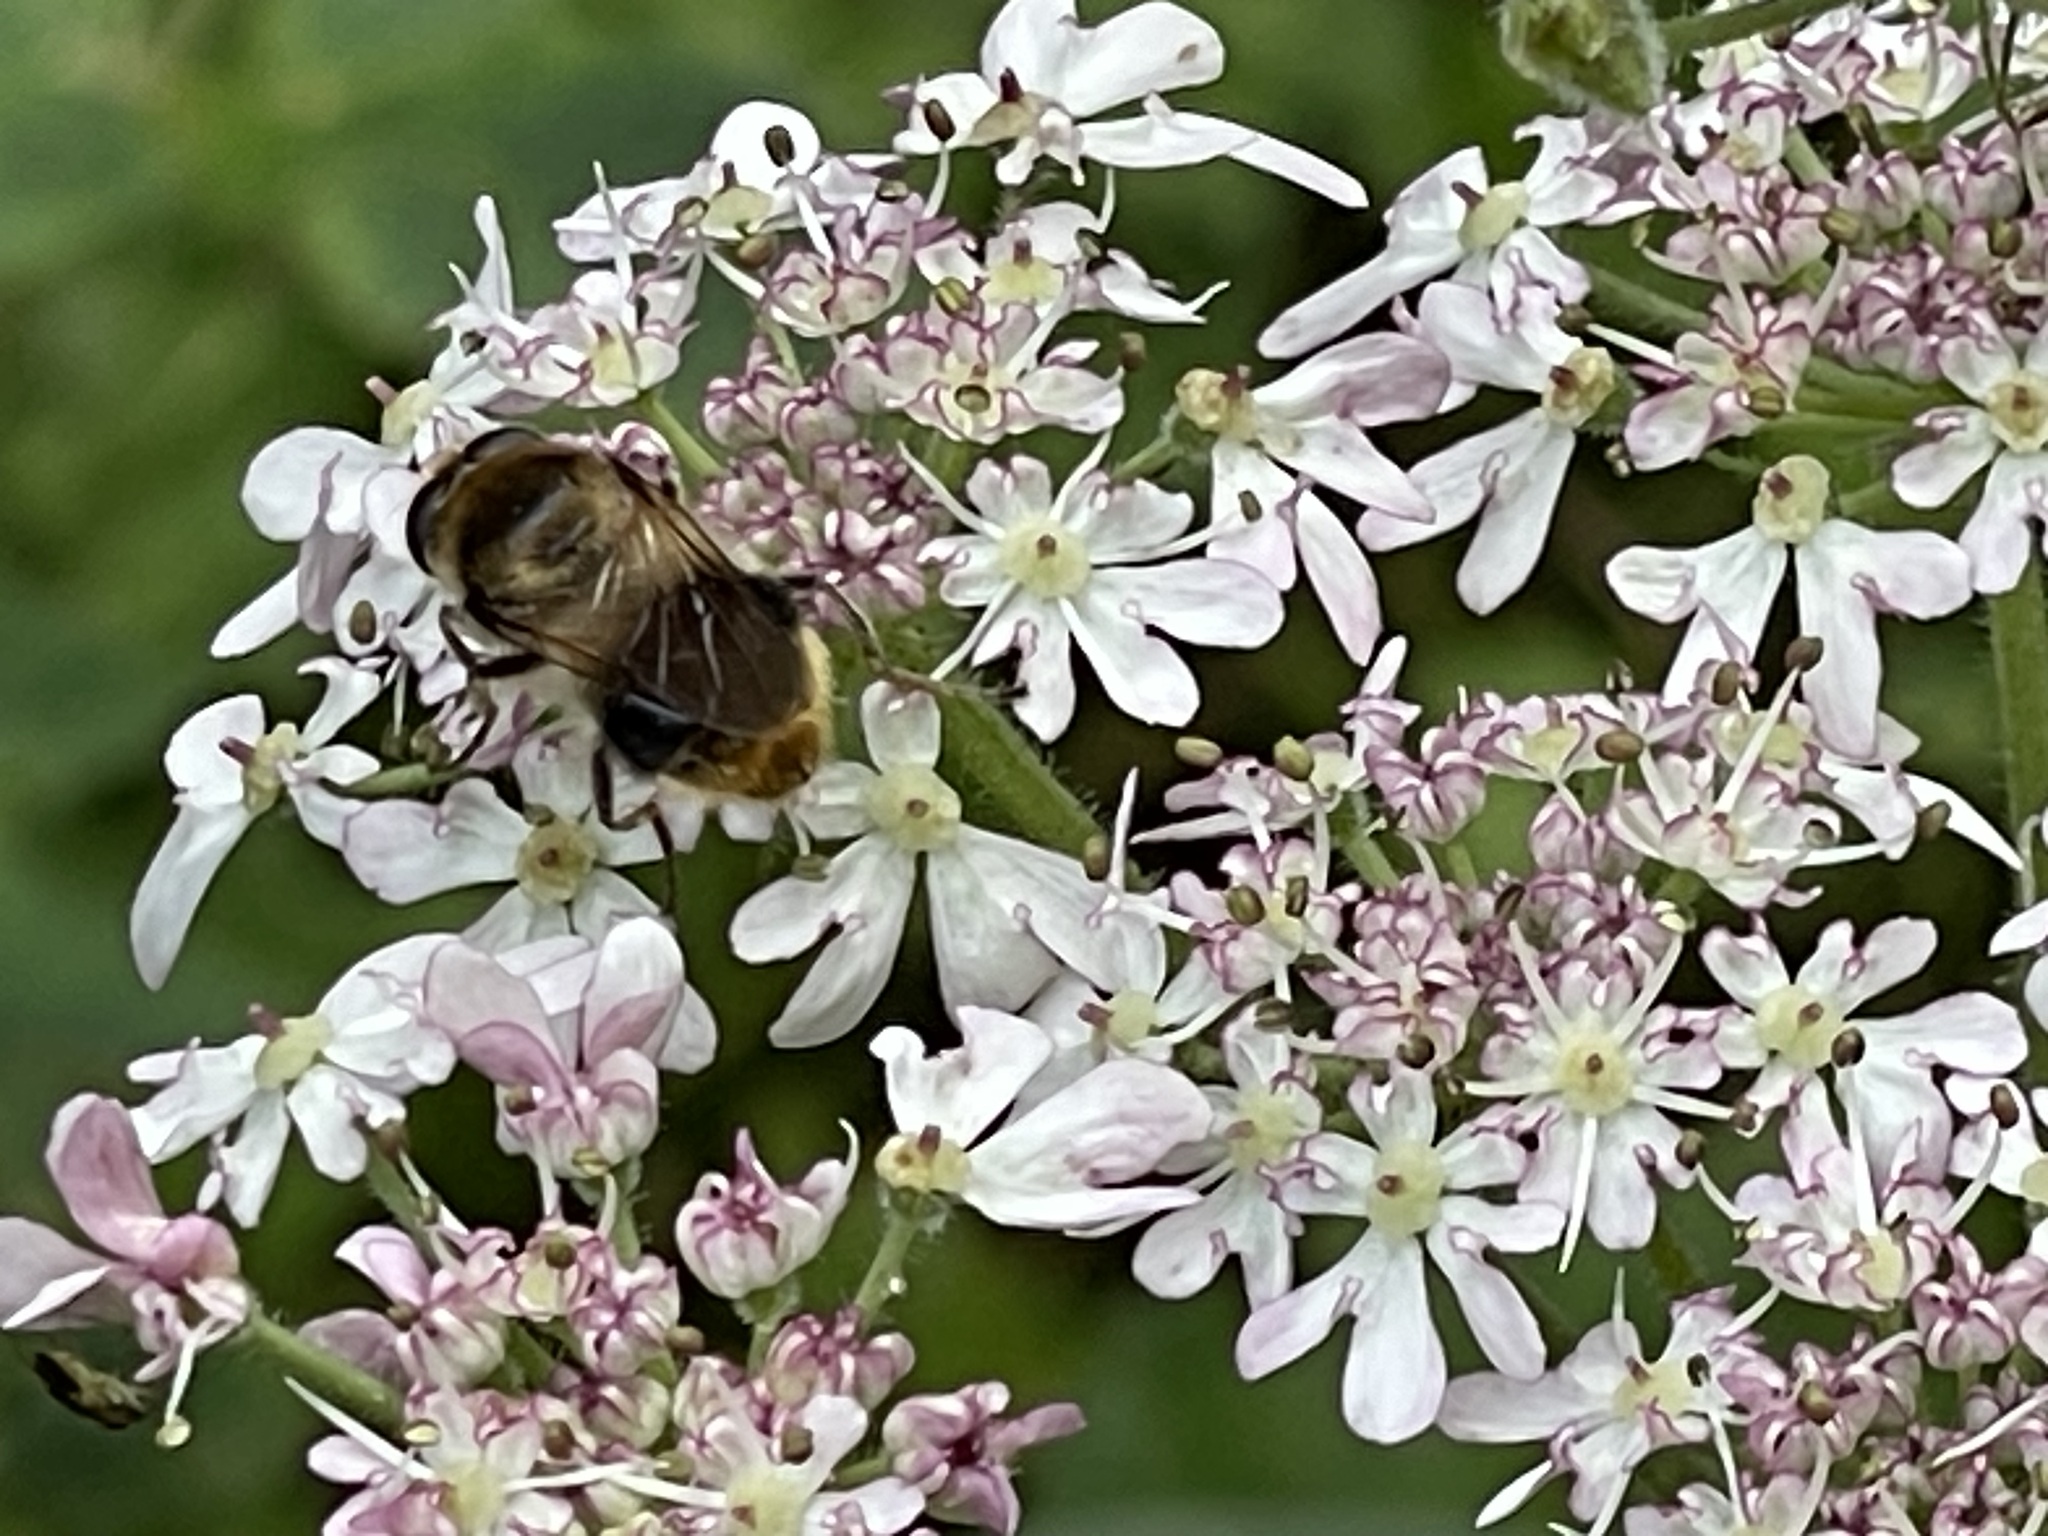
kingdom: Animalia
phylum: Arthropoda
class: Insecta
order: Diptera
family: Syrphidae
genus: Cheilosia
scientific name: Cheilosia illustrata
